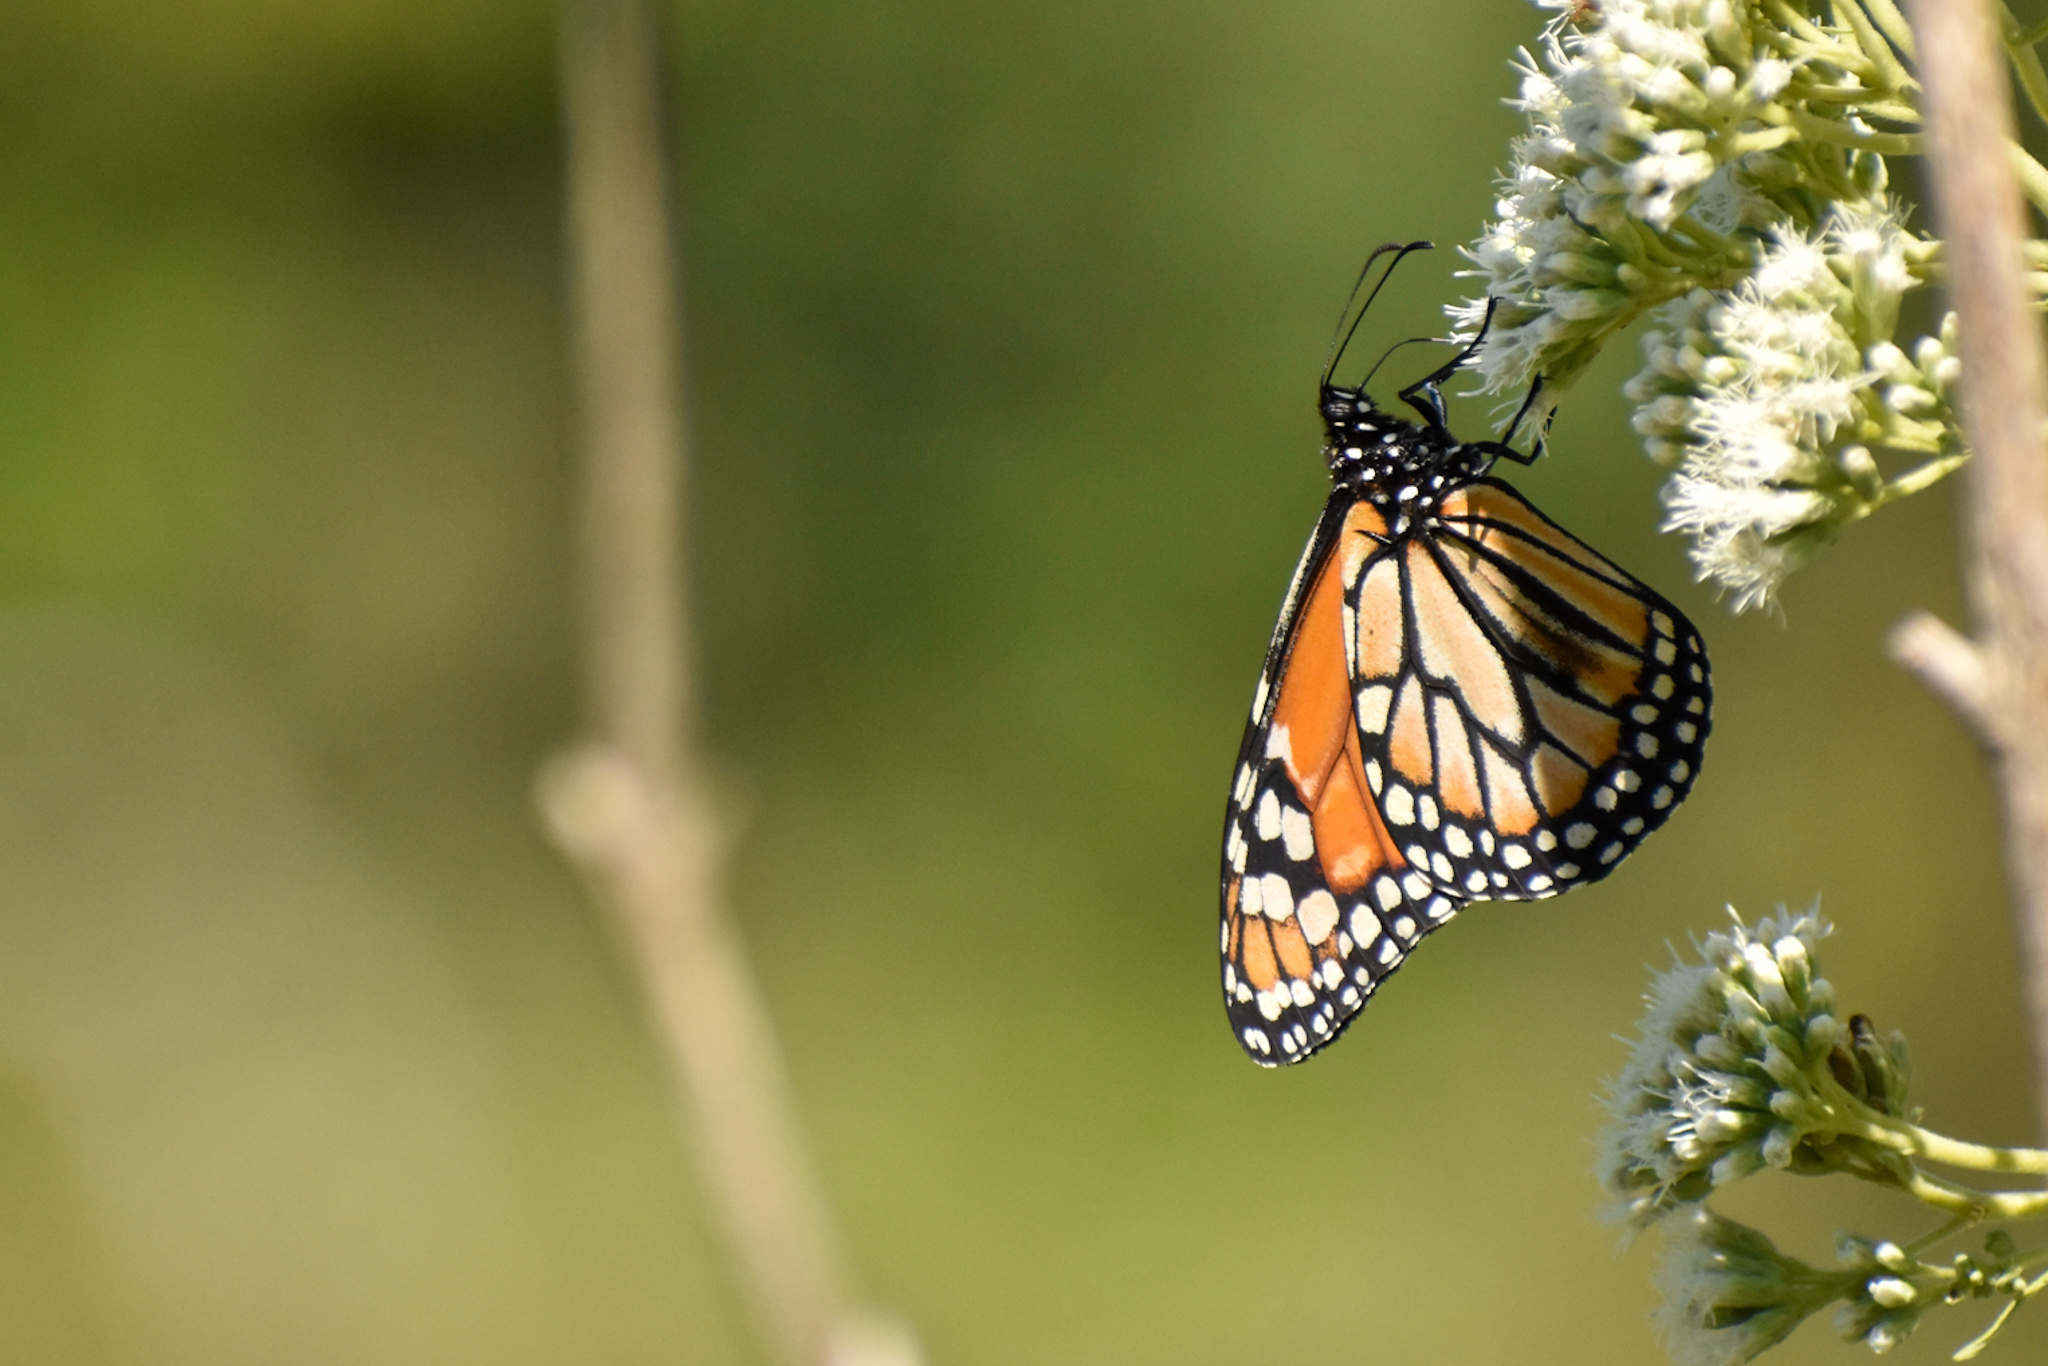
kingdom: Animalia
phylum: Arthropoda
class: Insecta
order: Lepidoptera
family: Nymphalidae
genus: Danaus
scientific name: Danaus erippus
